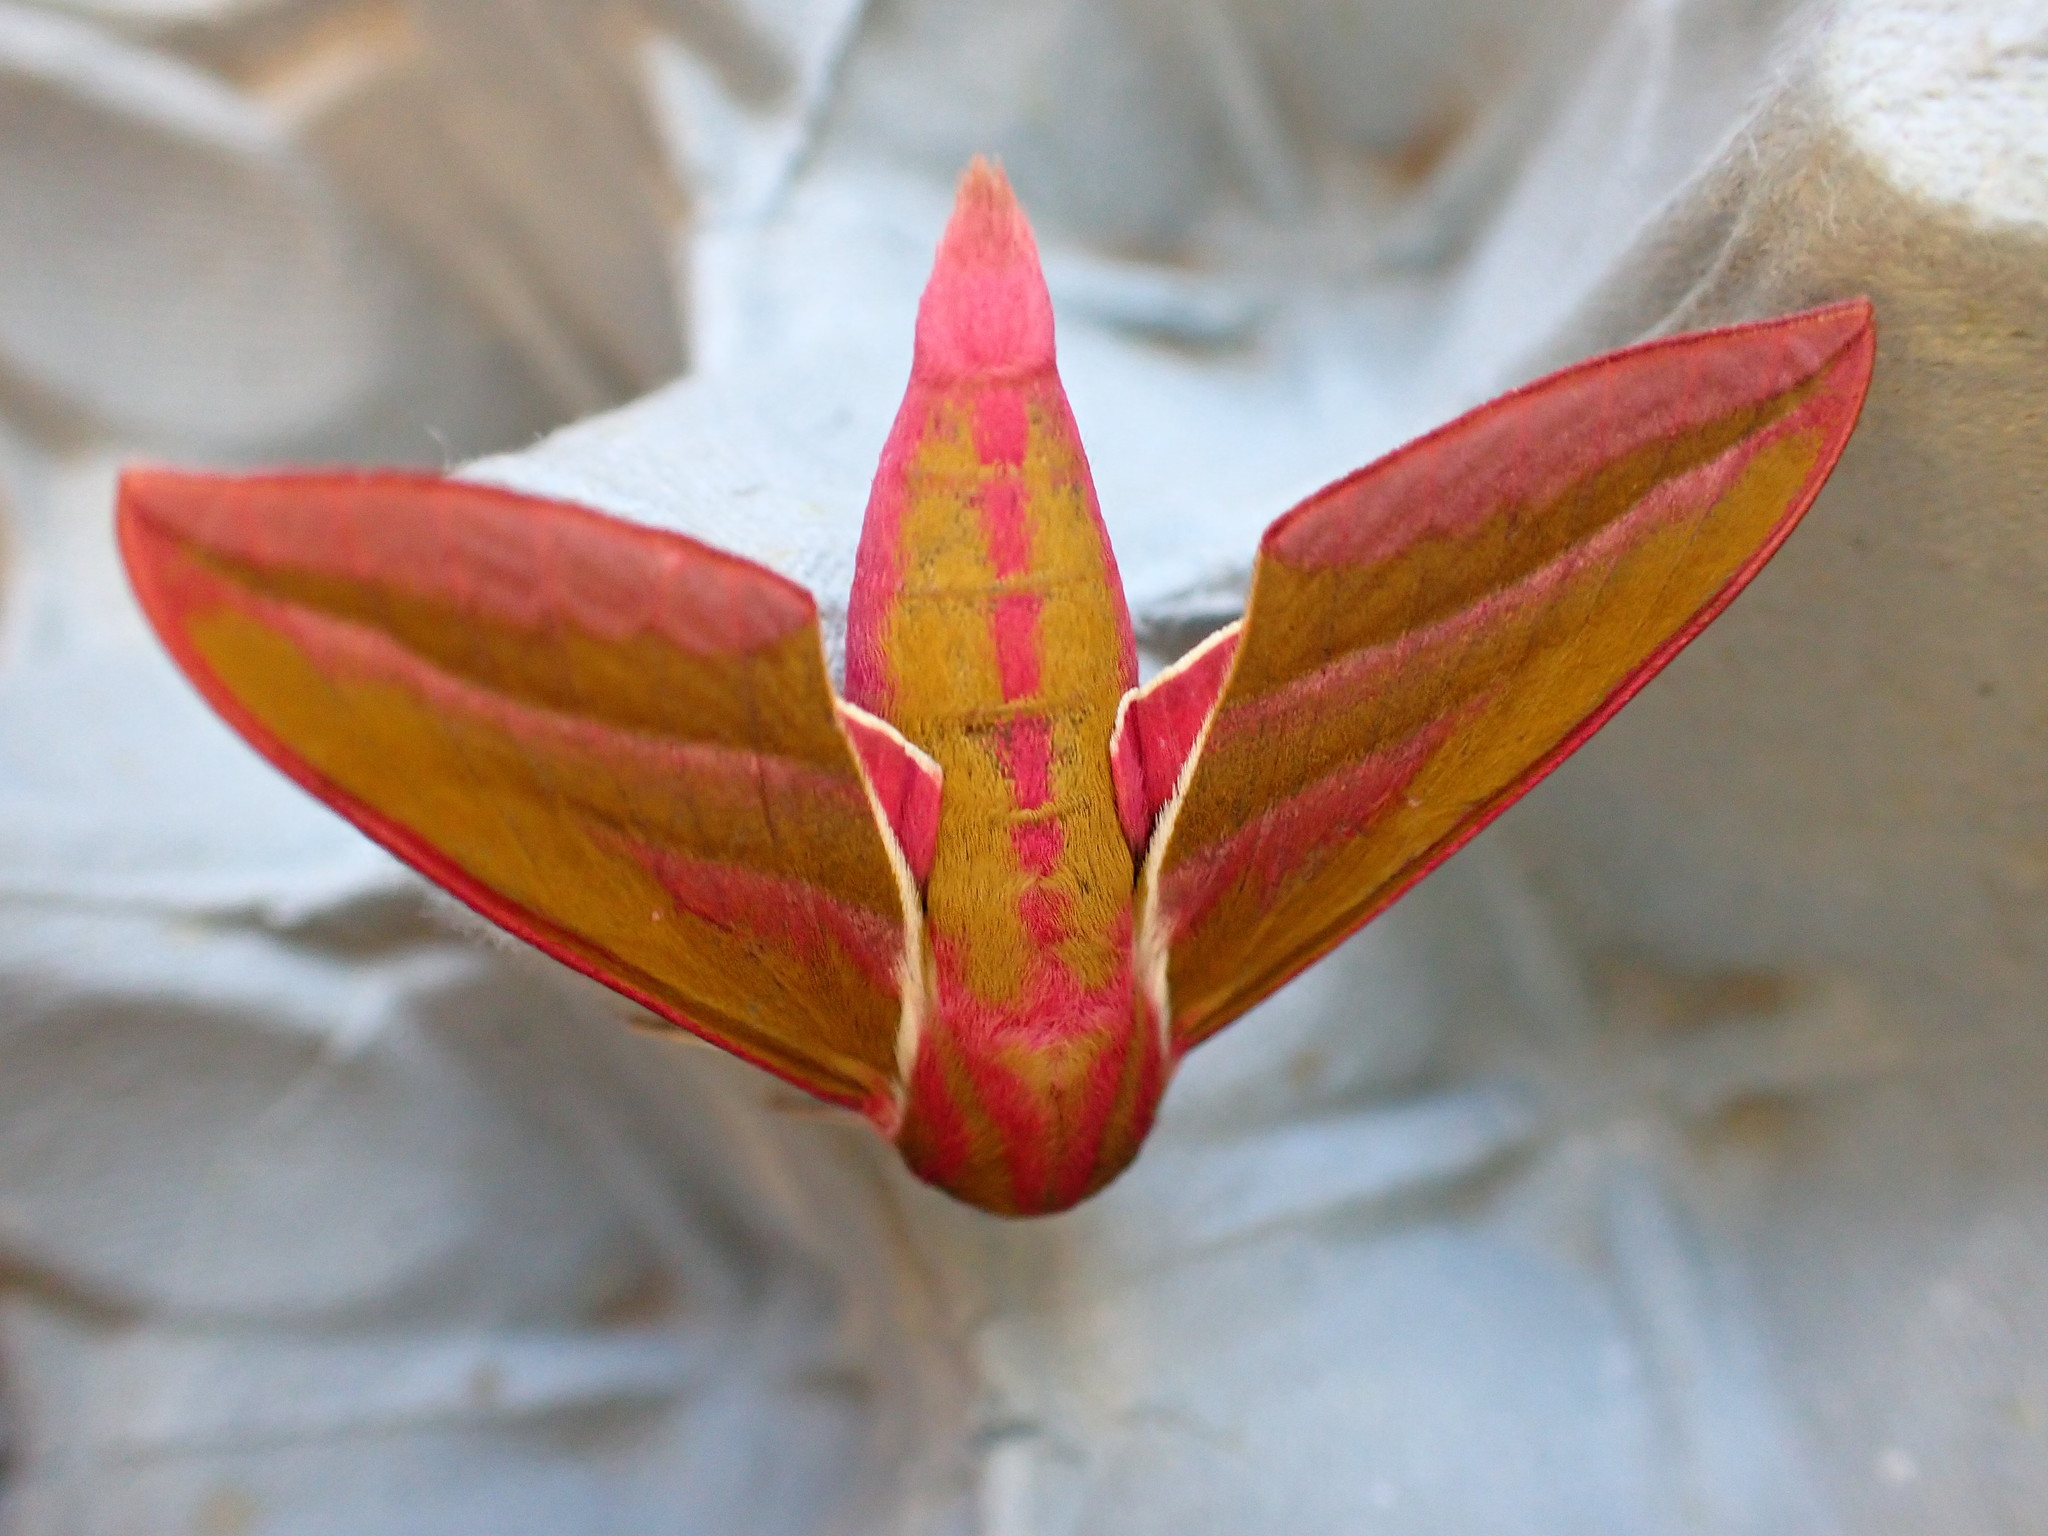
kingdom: Animalia
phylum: Arthropoda
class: Insecta
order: Lepidoptera
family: Sphingidae
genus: Deilephila
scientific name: Deilephila elpenor
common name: Elephant hawk-moth
